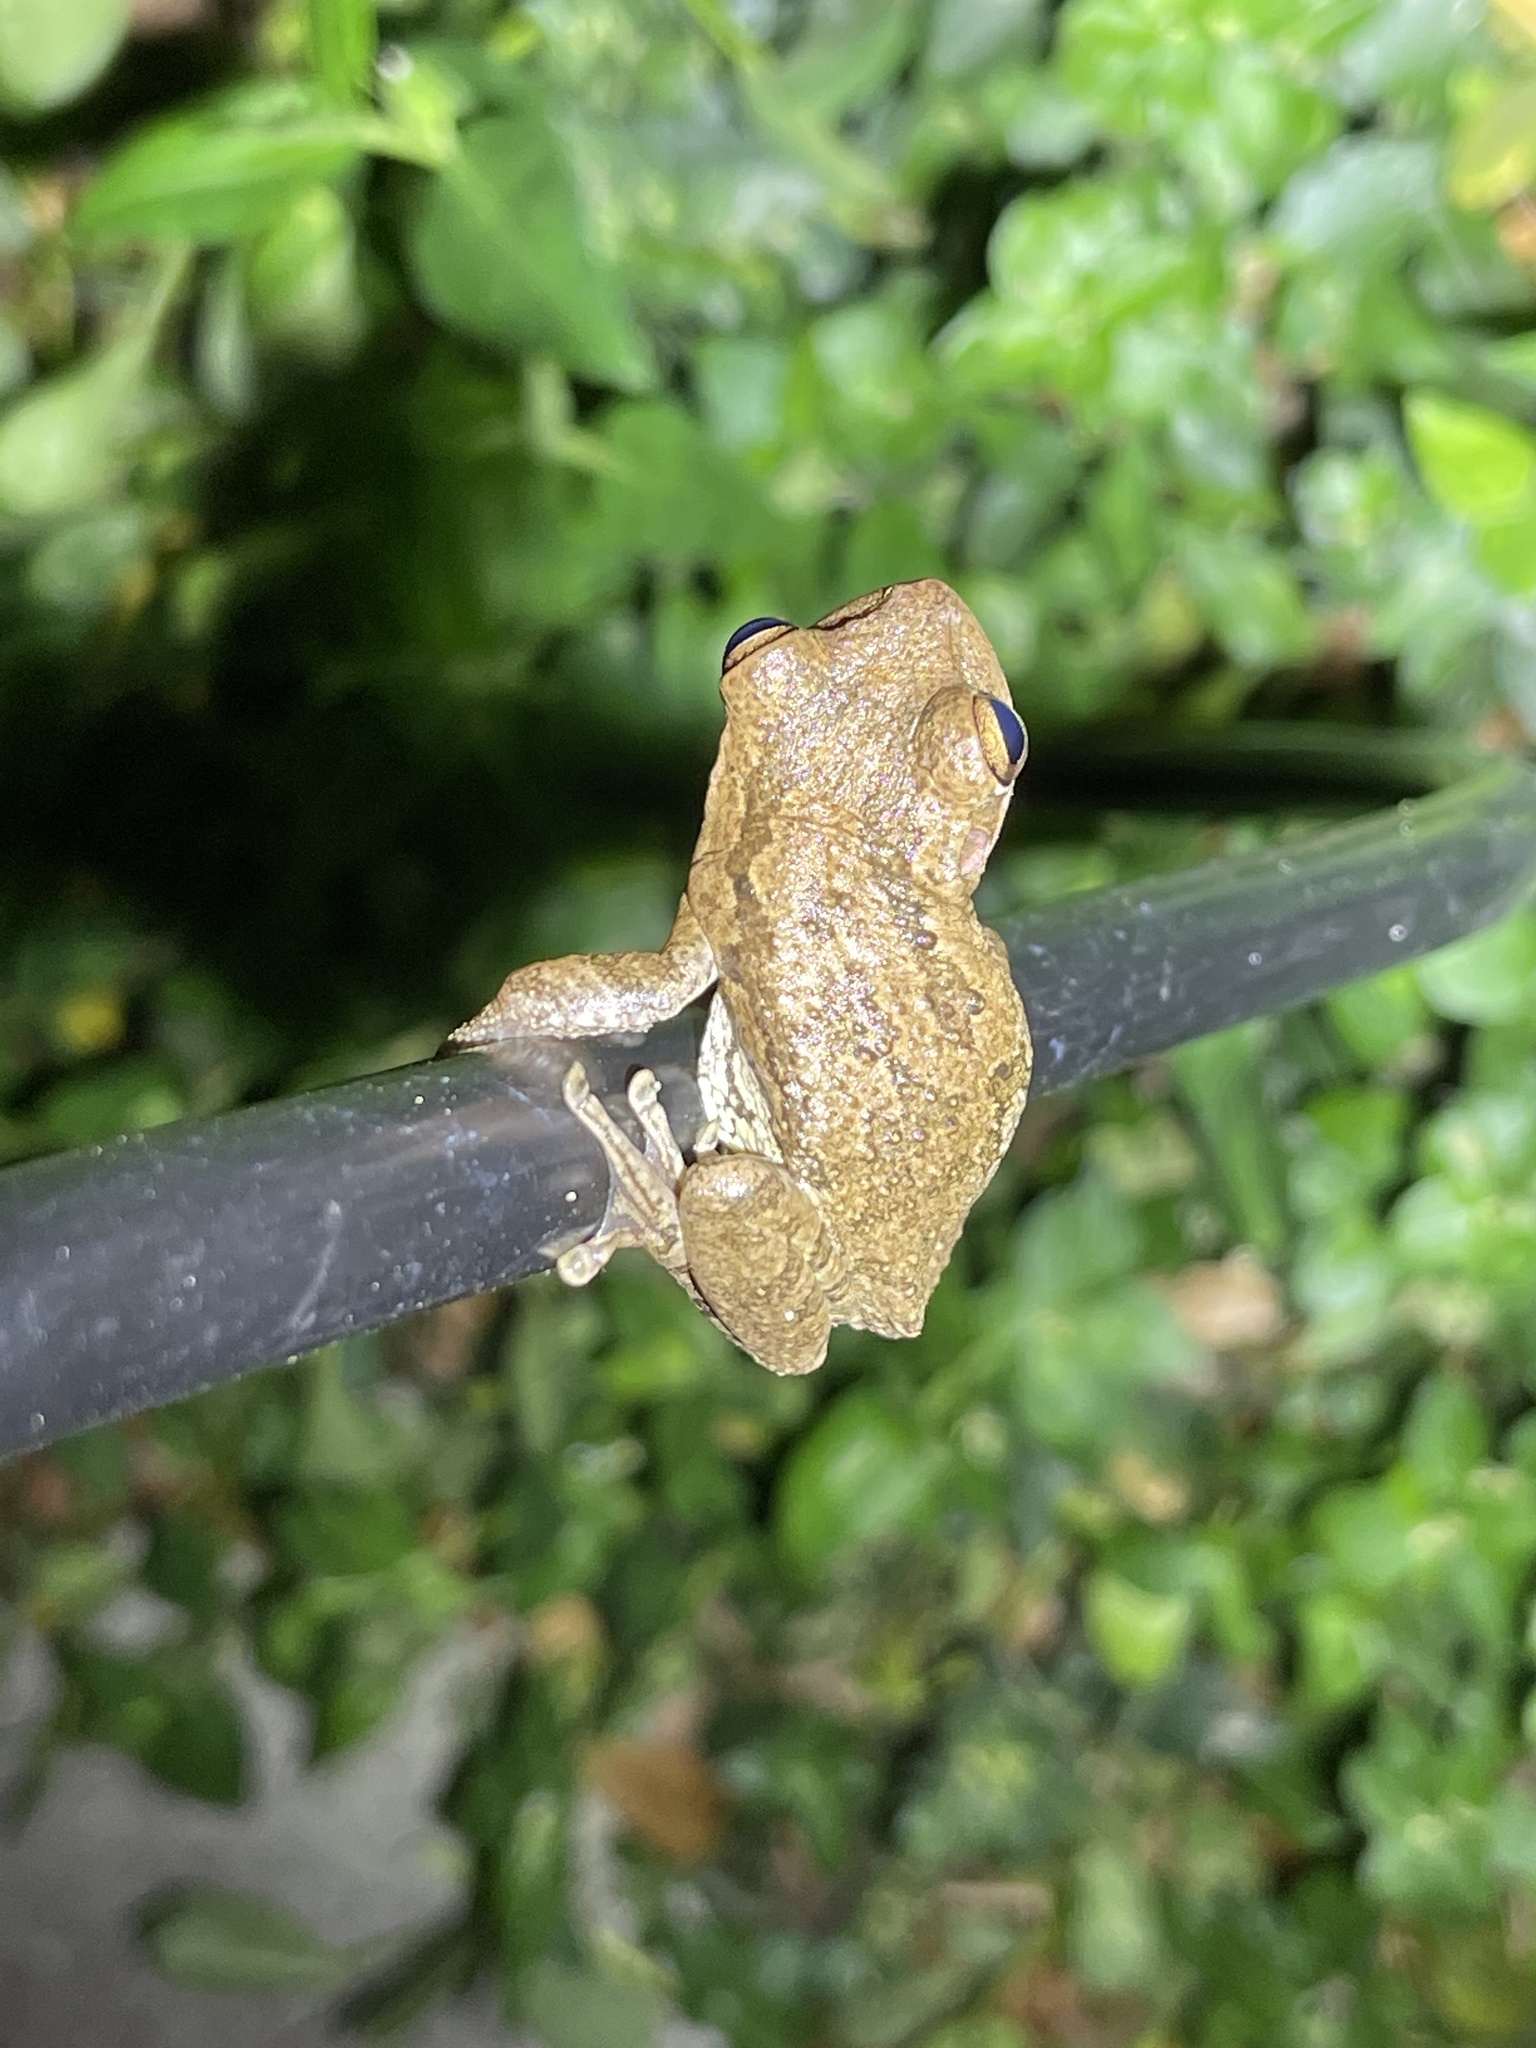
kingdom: Animalia
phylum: Chordata
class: Amphibia
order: Anura
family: Hylidae
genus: Osteopilus
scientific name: Osteopilus septentrionalis
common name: Cuban treefrog
